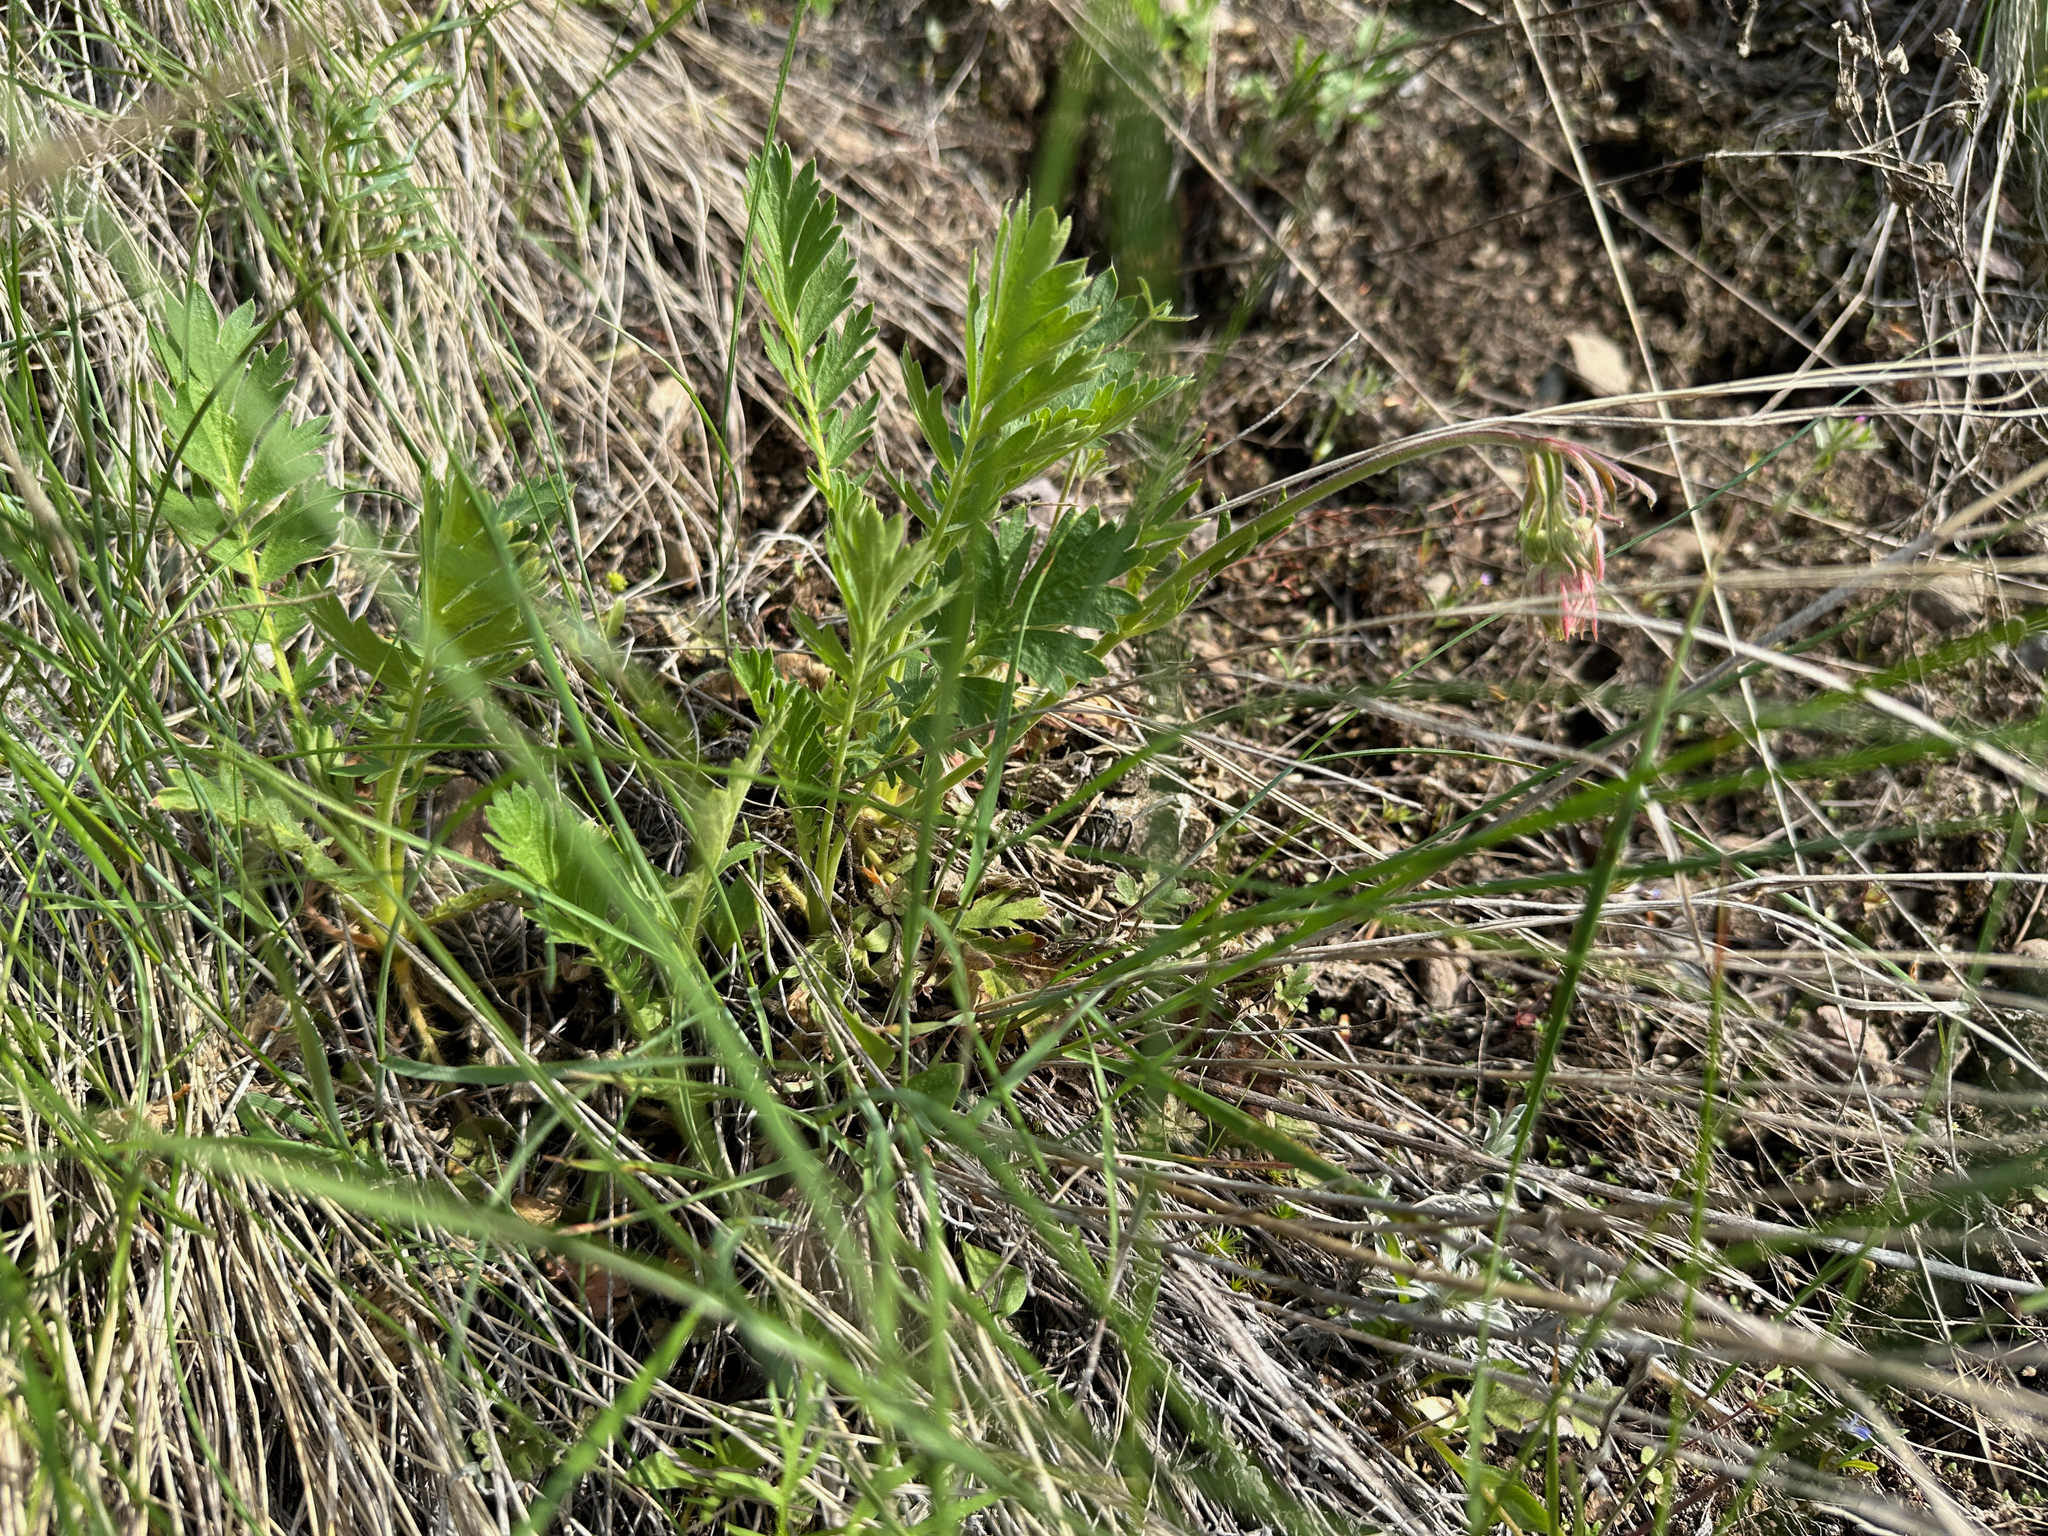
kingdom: Plantae
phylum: Tracheophyta
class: Magnoliopsida
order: Rosales
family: Rosaceae
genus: Geum
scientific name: Geum triflorum
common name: Old man's whiskers
